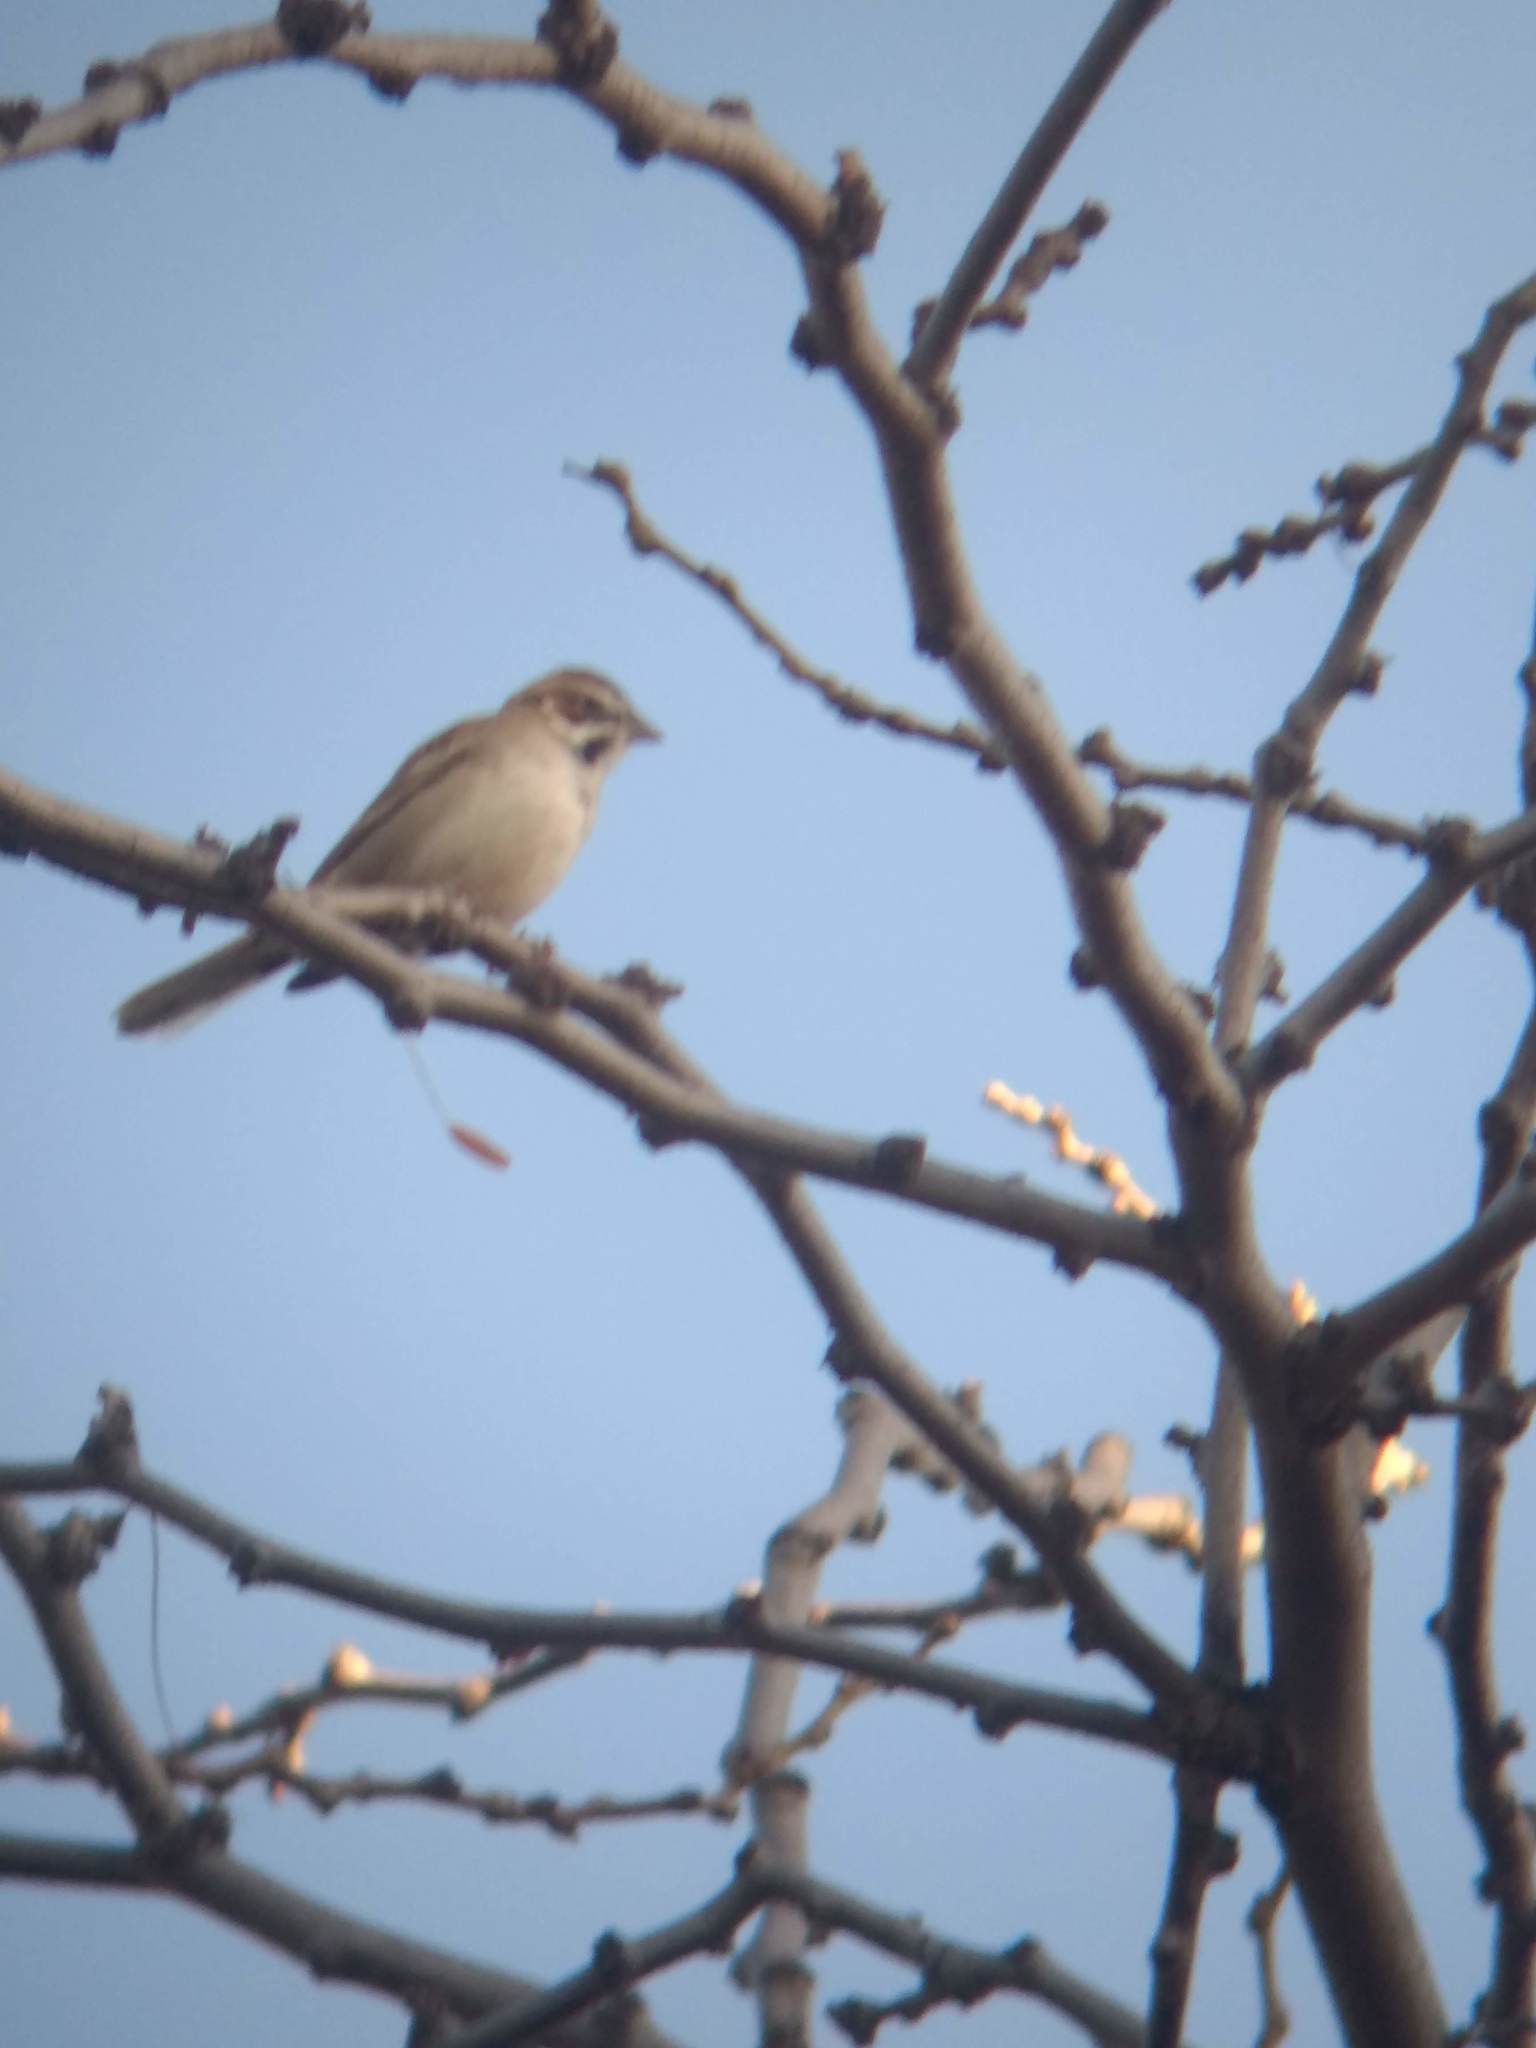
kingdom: Animalia
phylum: Chordata
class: Aves
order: Passeriformes
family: Passerellidae
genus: Chondestes
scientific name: Chondestes grammacus
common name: Lark sparrow
